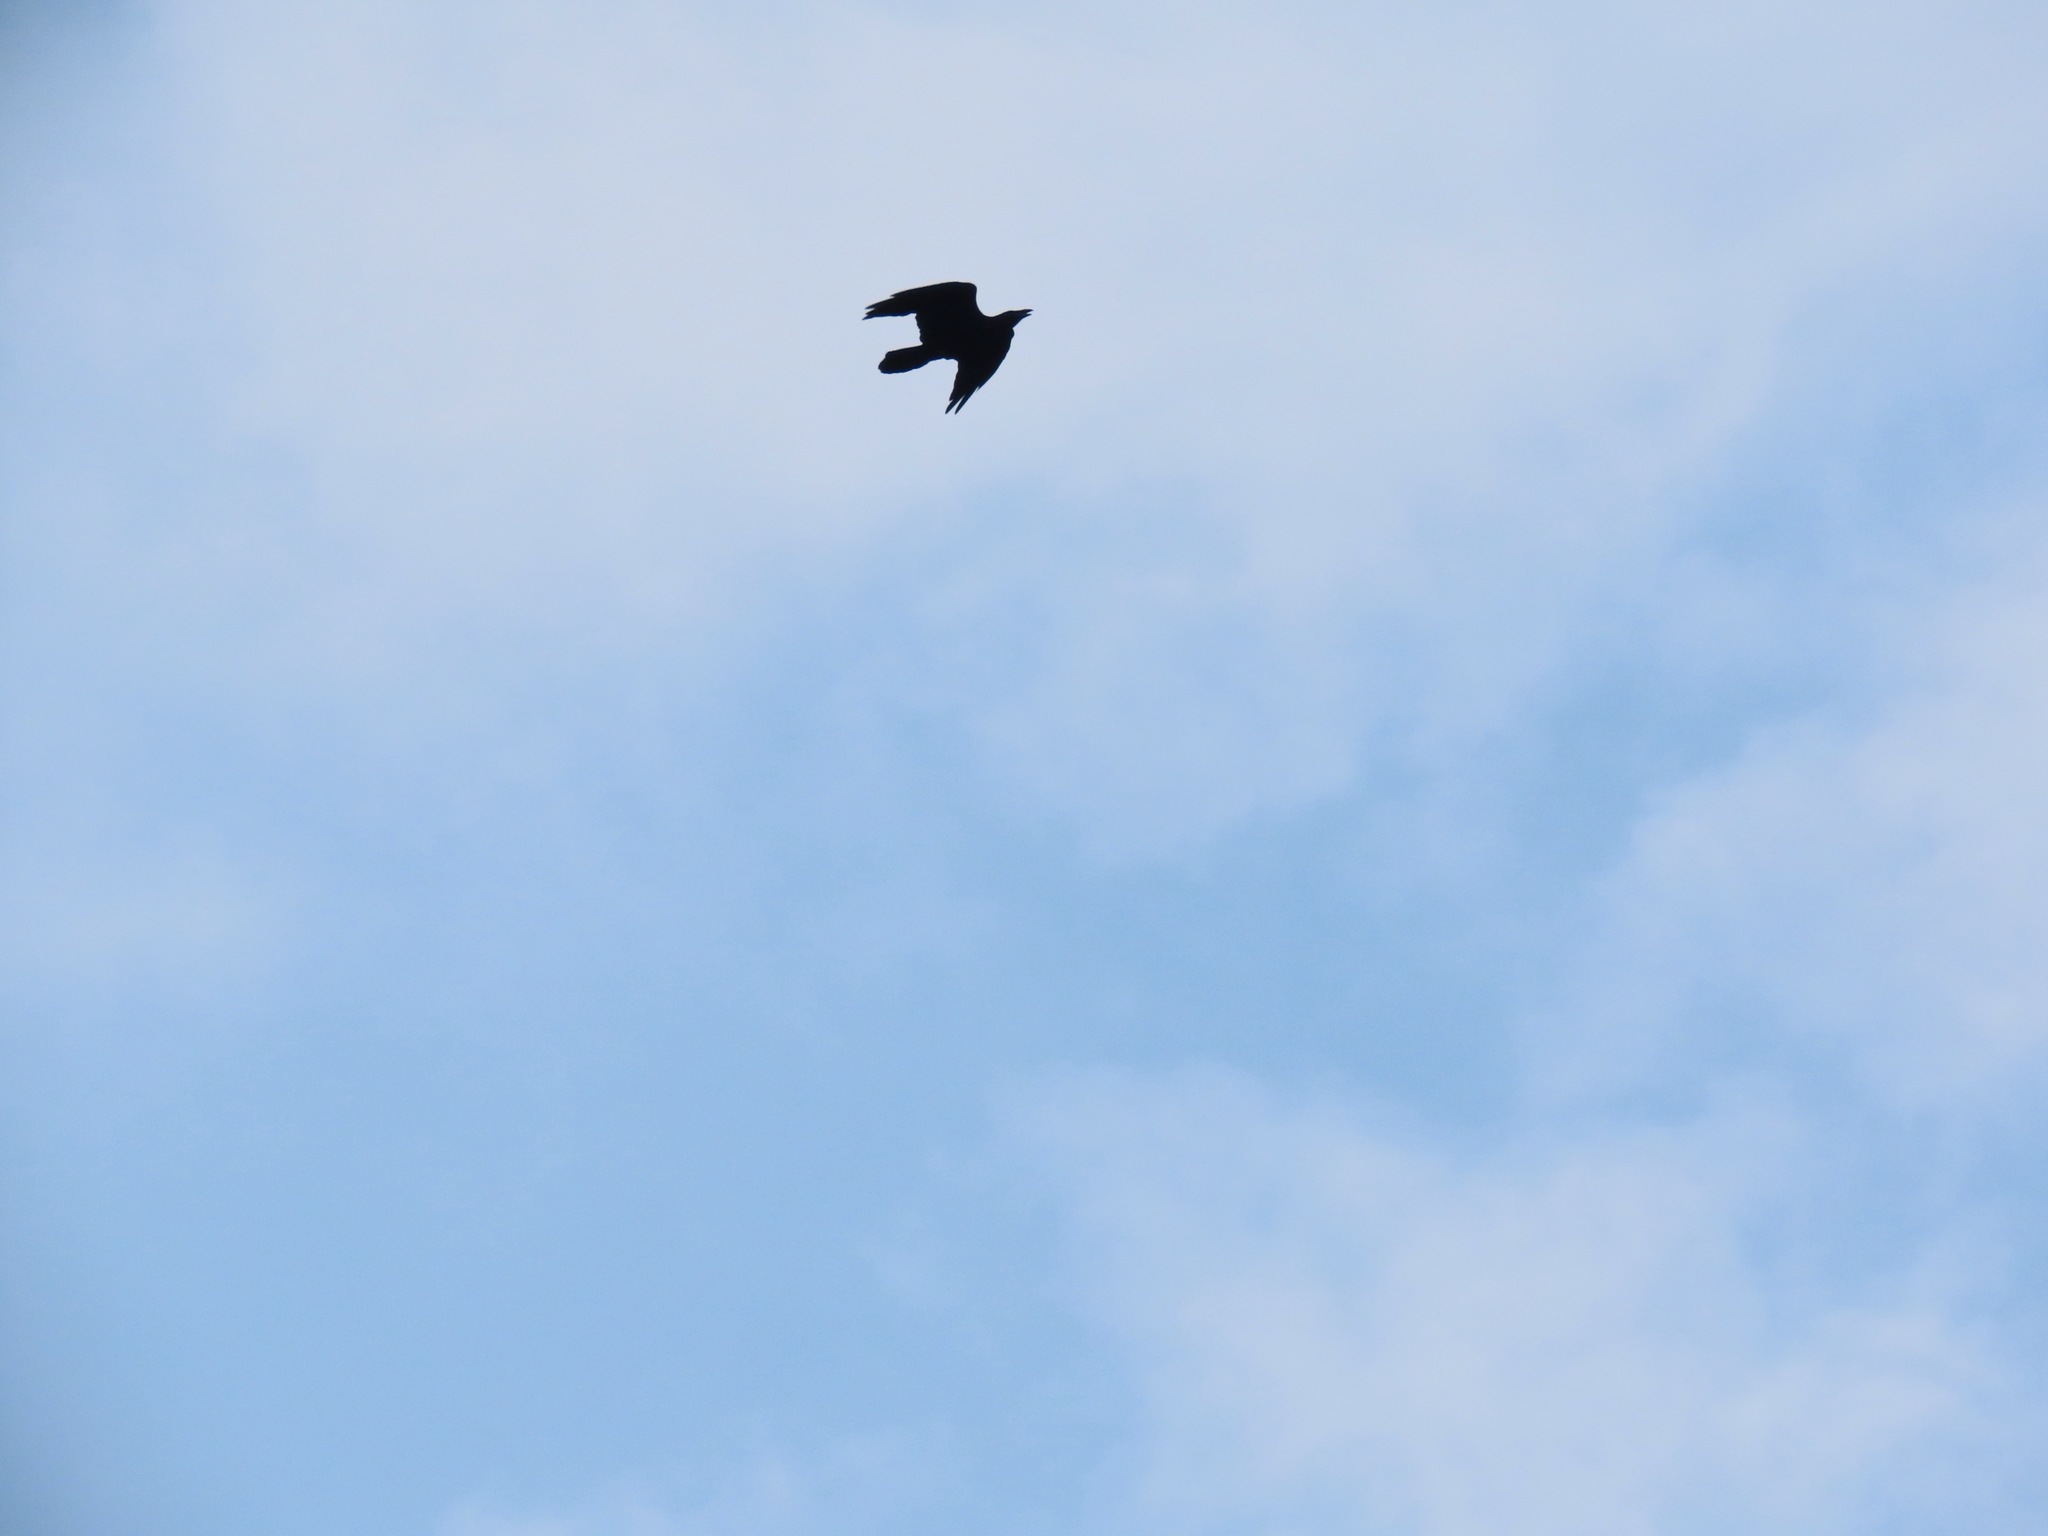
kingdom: Animalia
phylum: Chordata
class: Aves
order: Passeriformes
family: Corvidae
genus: Corvus
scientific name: Corvus corax
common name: Common raven
